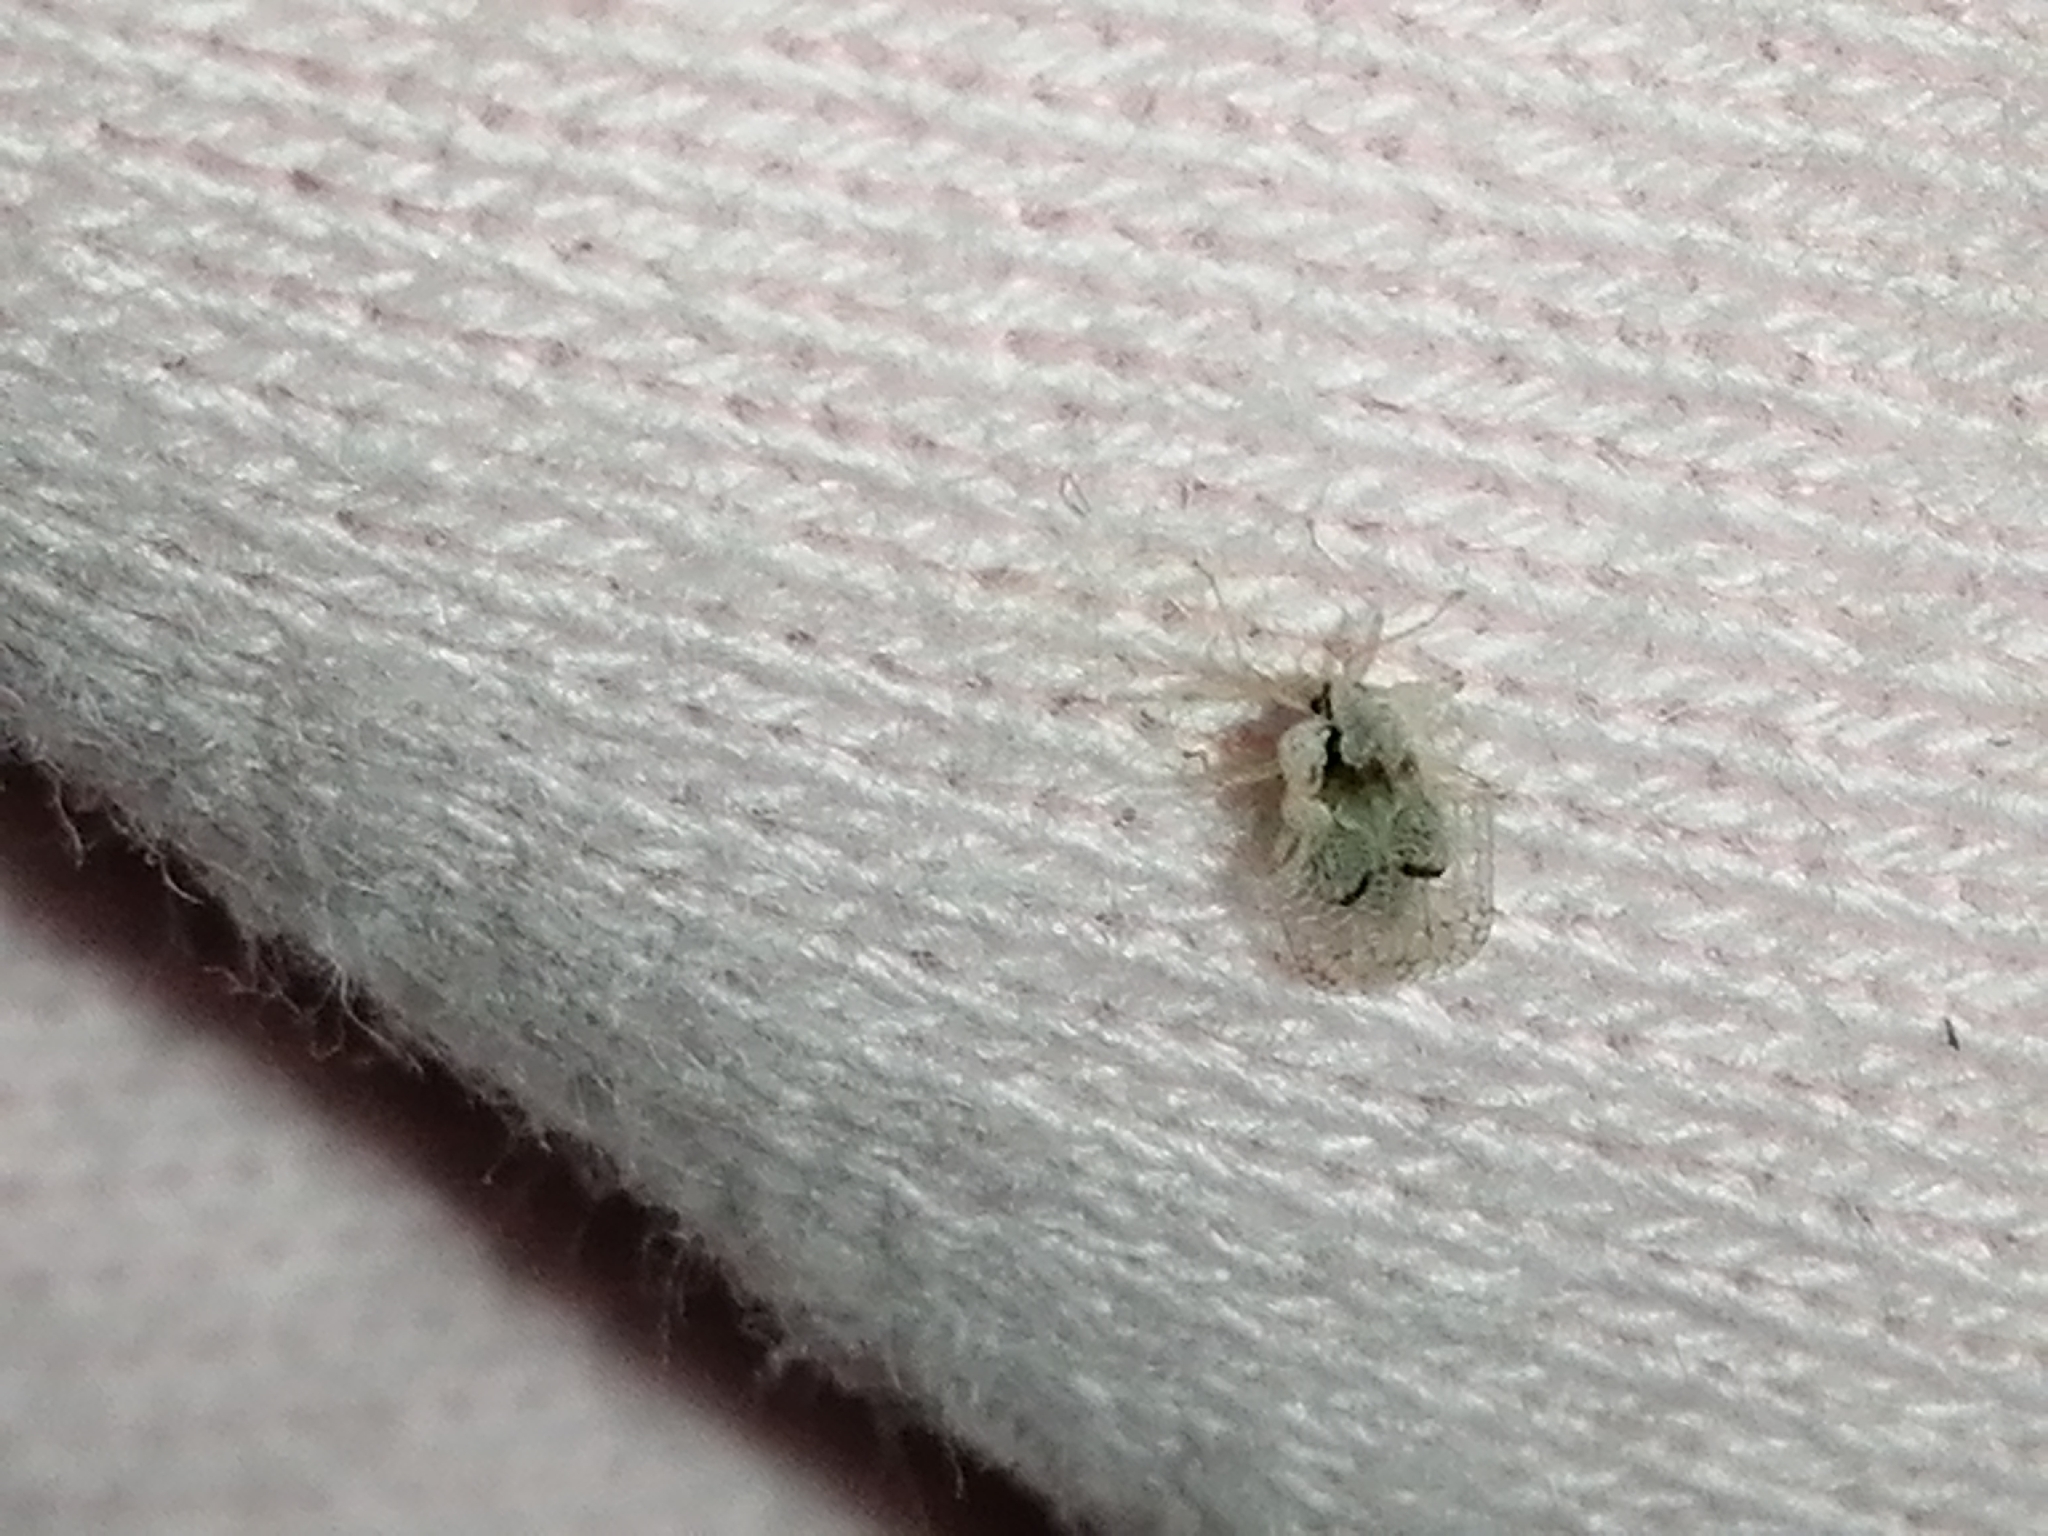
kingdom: Animalia
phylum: Arthropoda
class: Insecta
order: Hemiptera
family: Tingidae
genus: Corythucha
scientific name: Corythucha ciliata
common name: Sycamore lace bug
